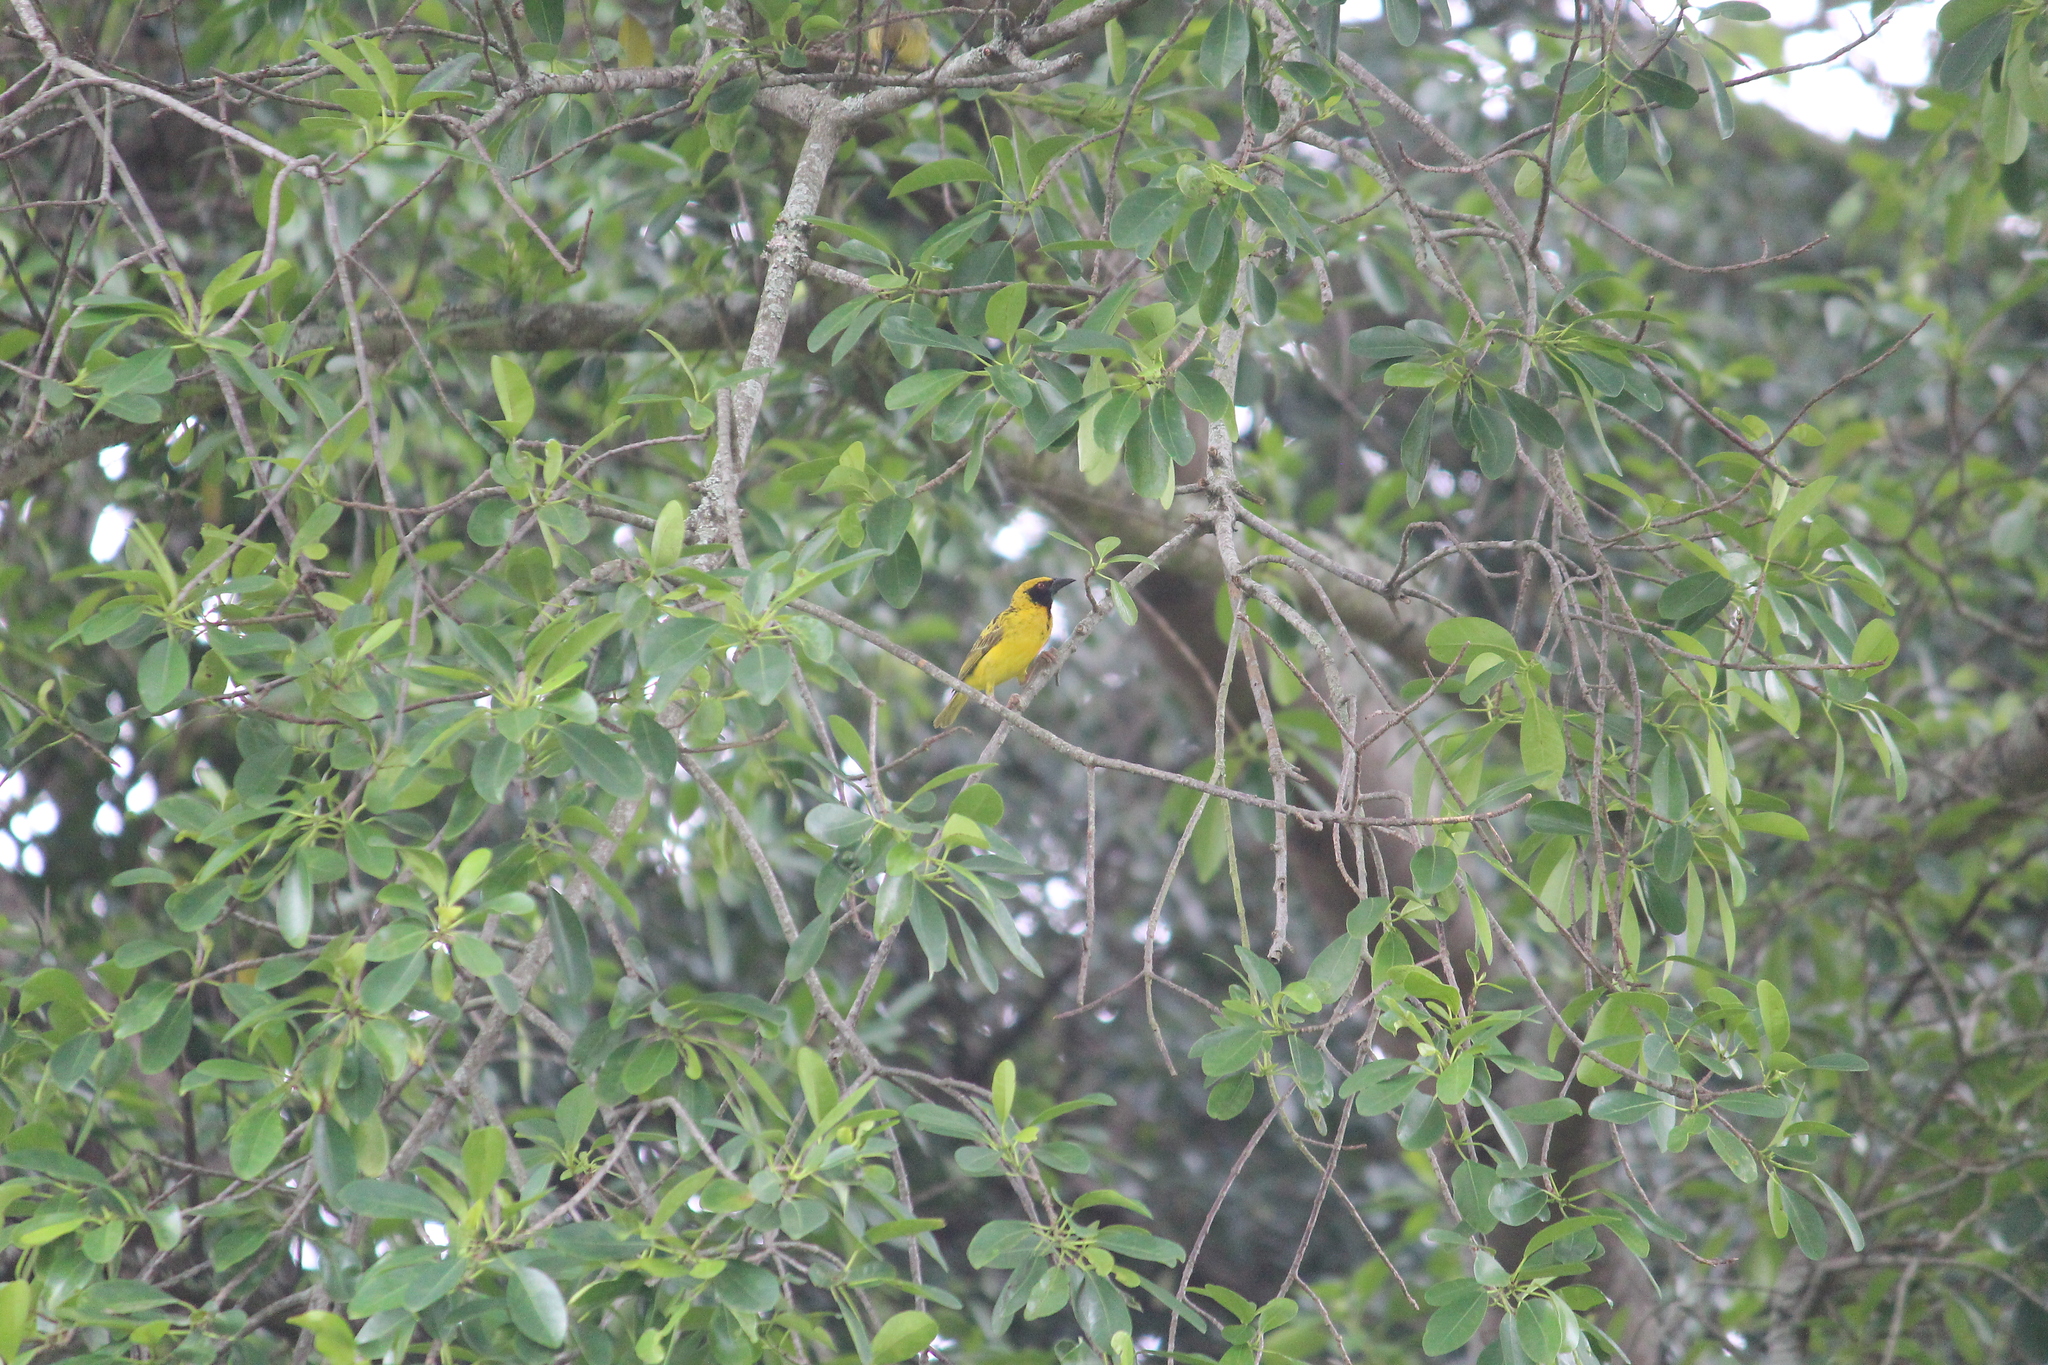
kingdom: Animalia
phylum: Chordata
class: Aves
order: Passeriformes
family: Ploceidae
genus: Ploceus
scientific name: Ploceus cucullatus
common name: Village weaver
